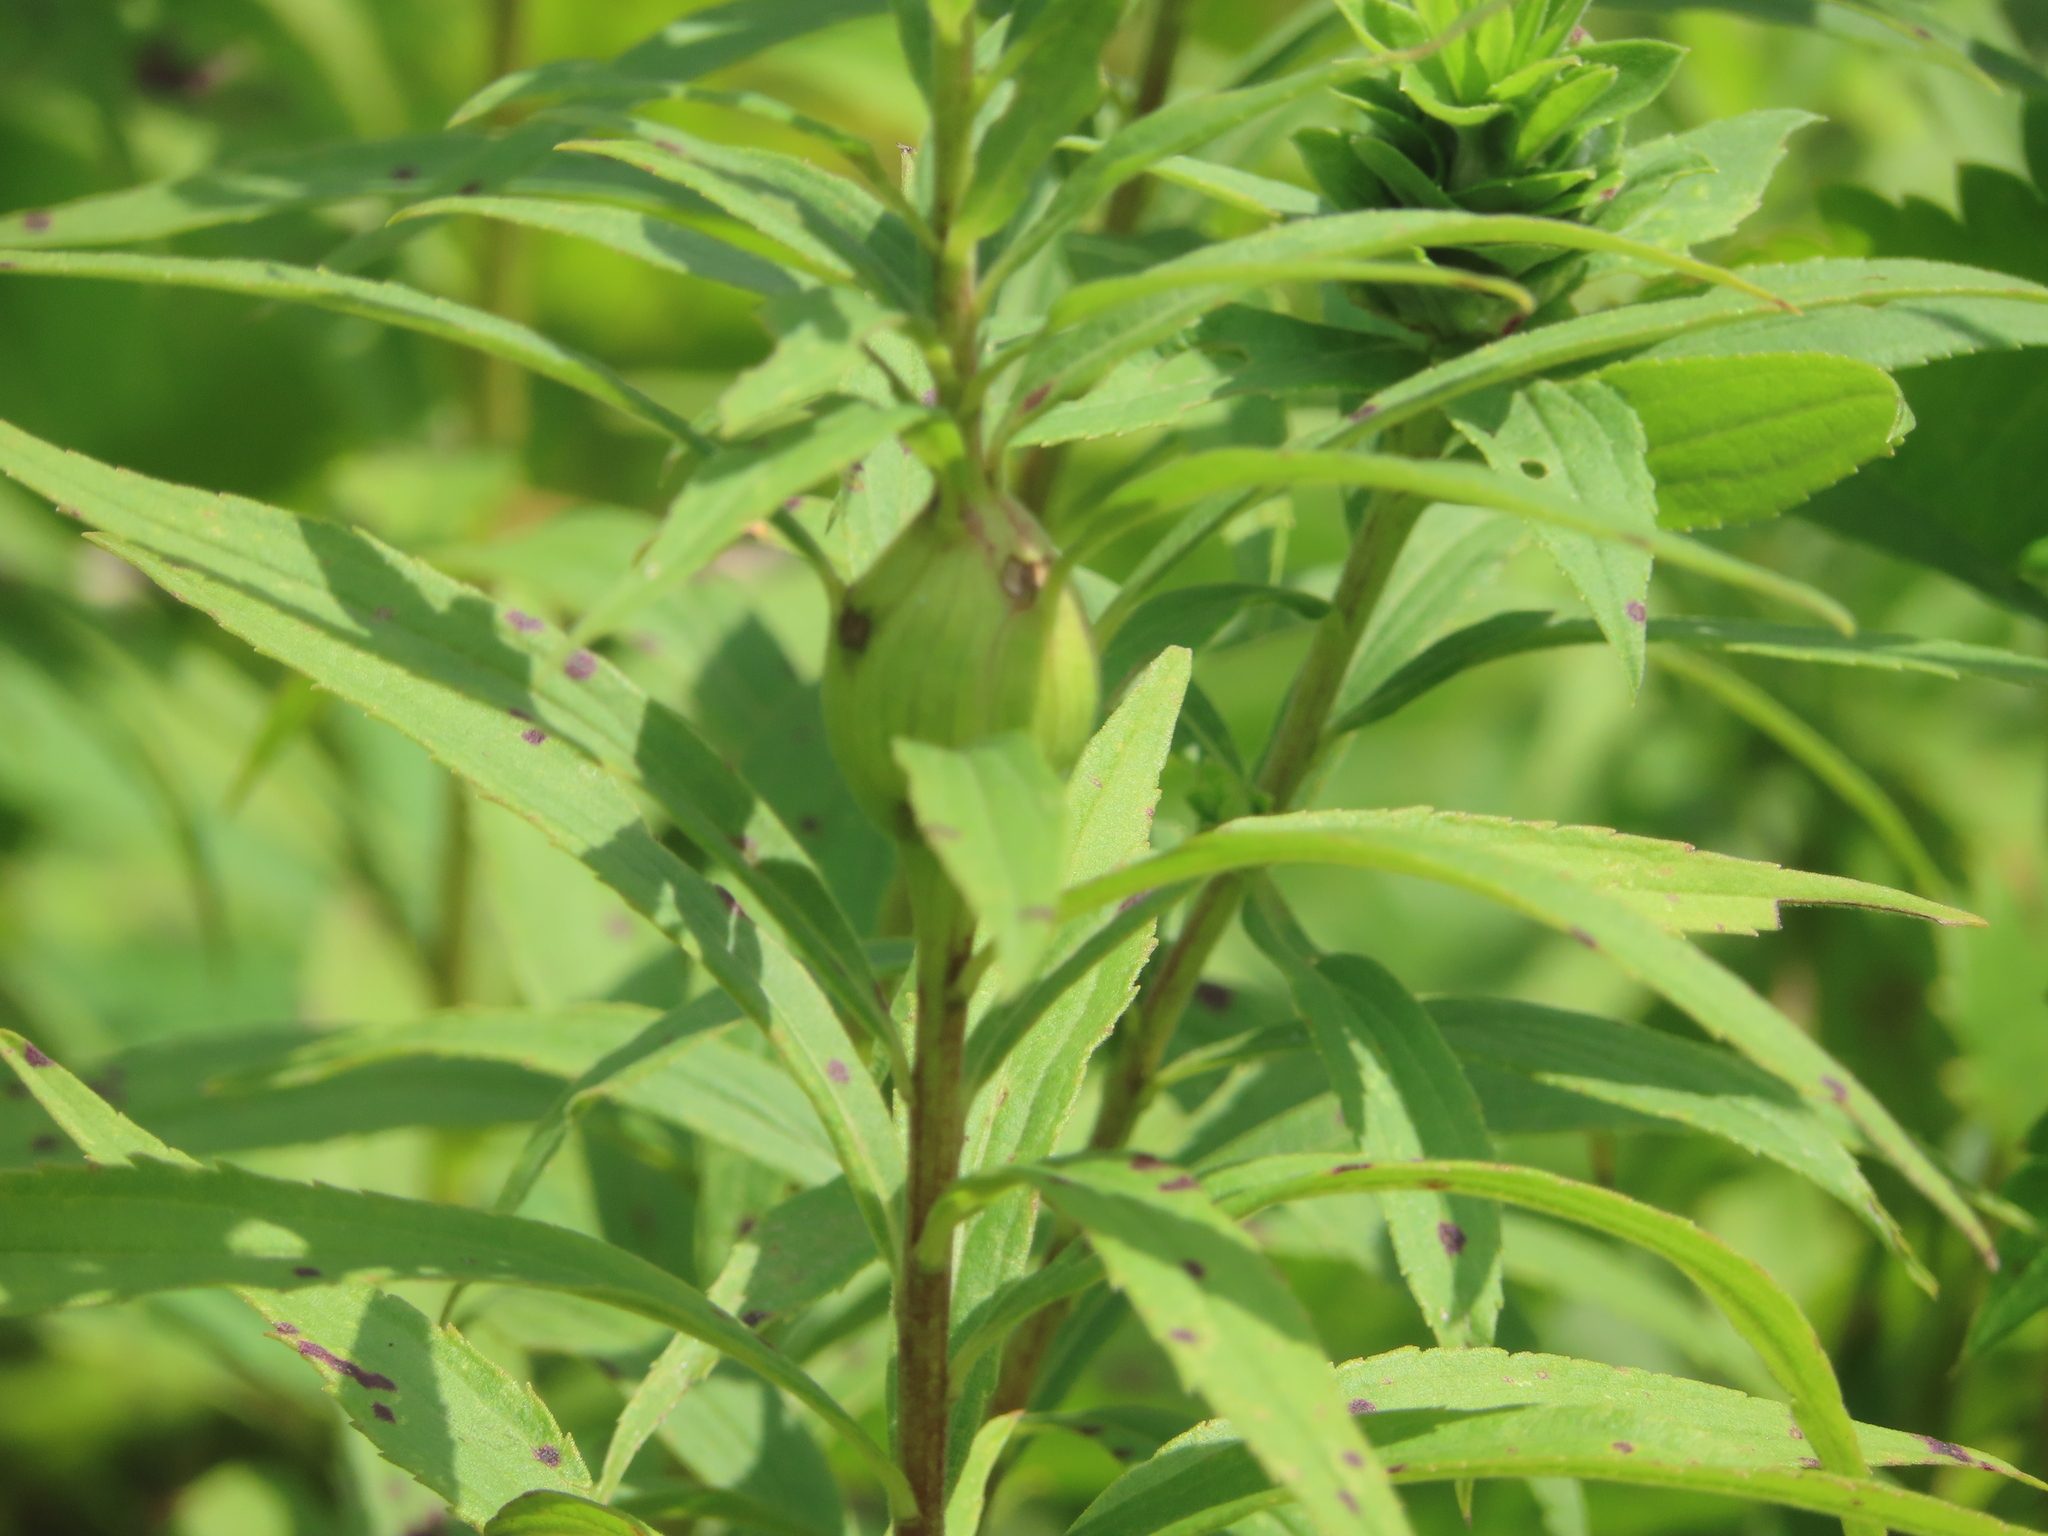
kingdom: Animalia
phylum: Arthropoda
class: Insecta
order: Diptera
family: Tephritidae
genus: Eurosta
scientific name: Eurosta solidaginis
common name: Goldenrod gall fly
